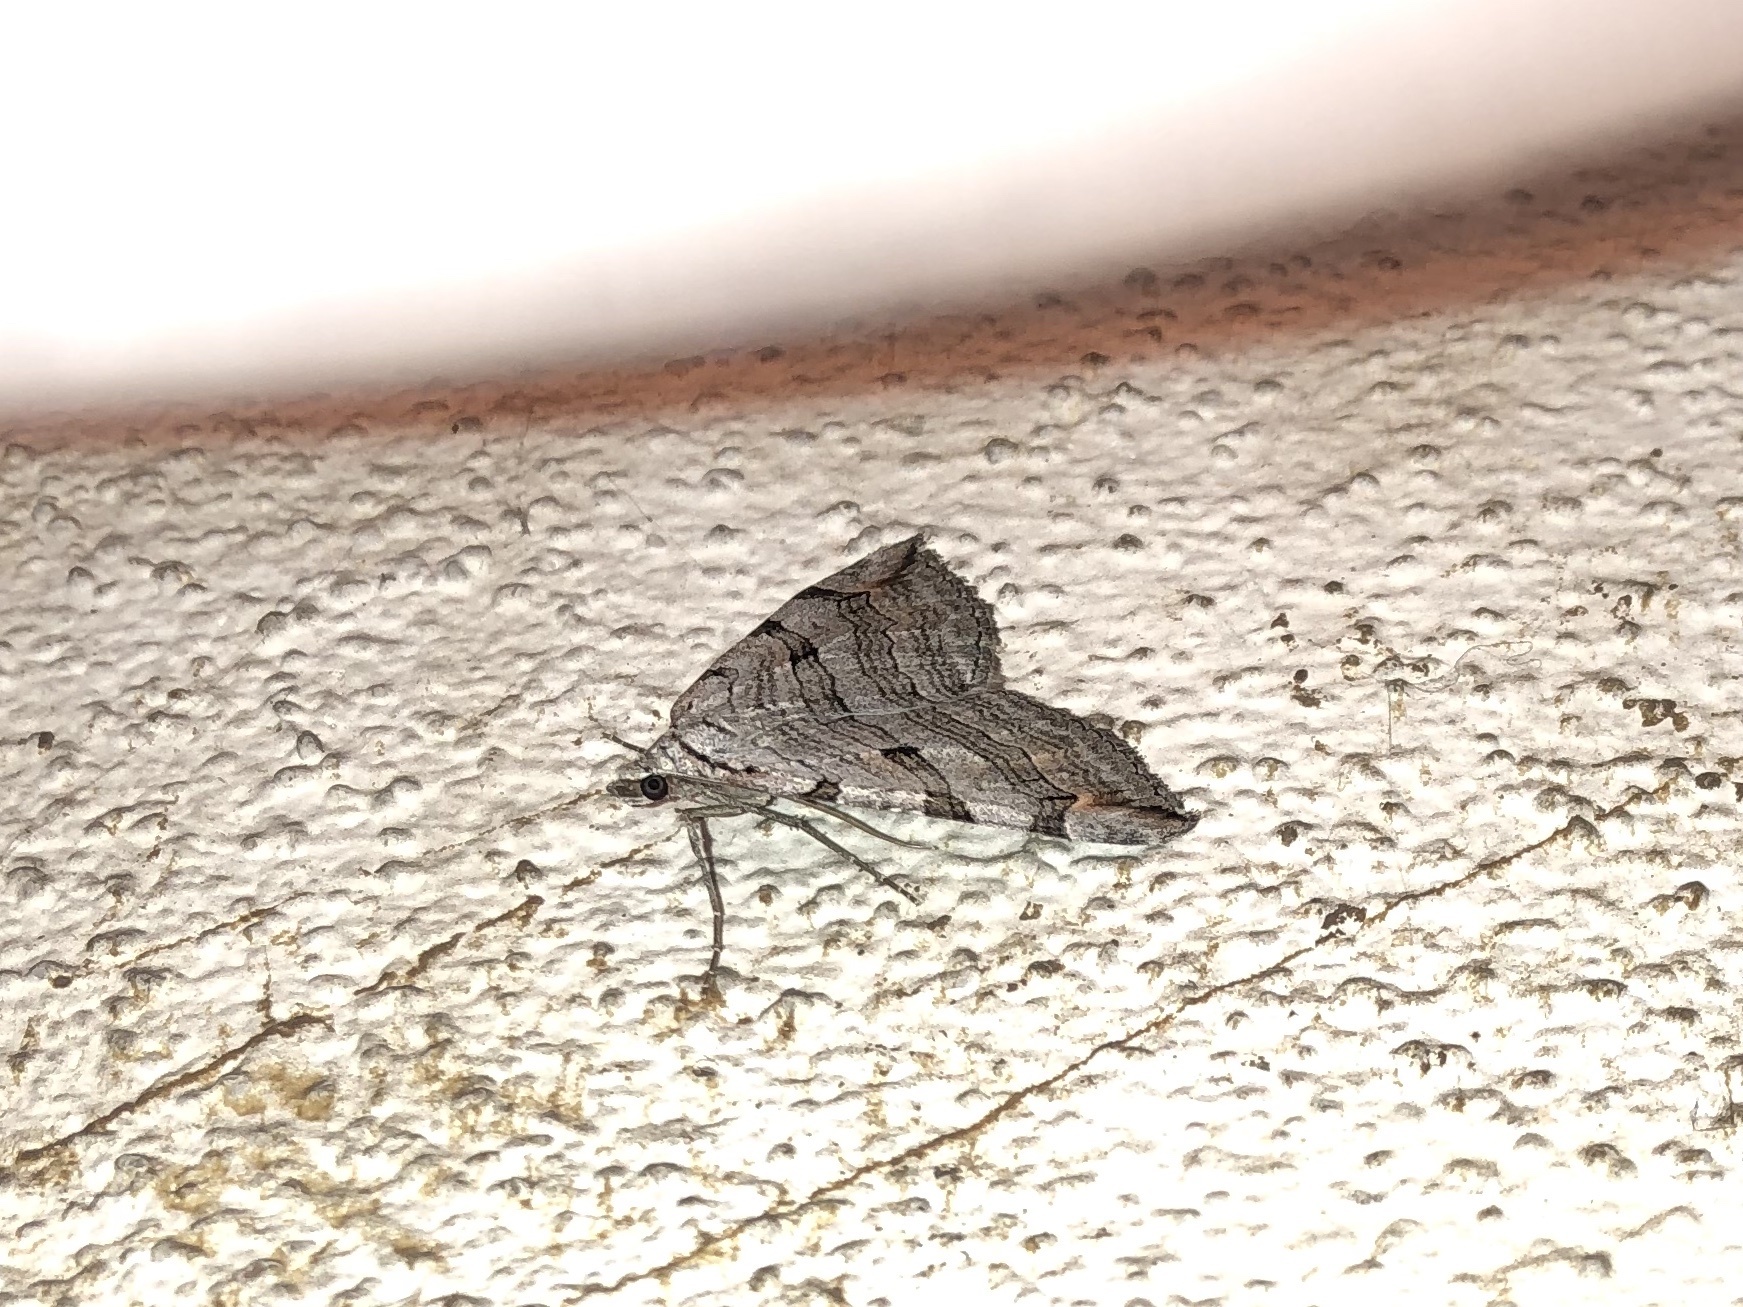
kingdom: Animalia
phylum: Arthropoda
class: Insecta
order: Lepidoptera
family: Geometridae
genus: Aplocera
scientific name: Aplocera plagiata
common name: Treble-bar
